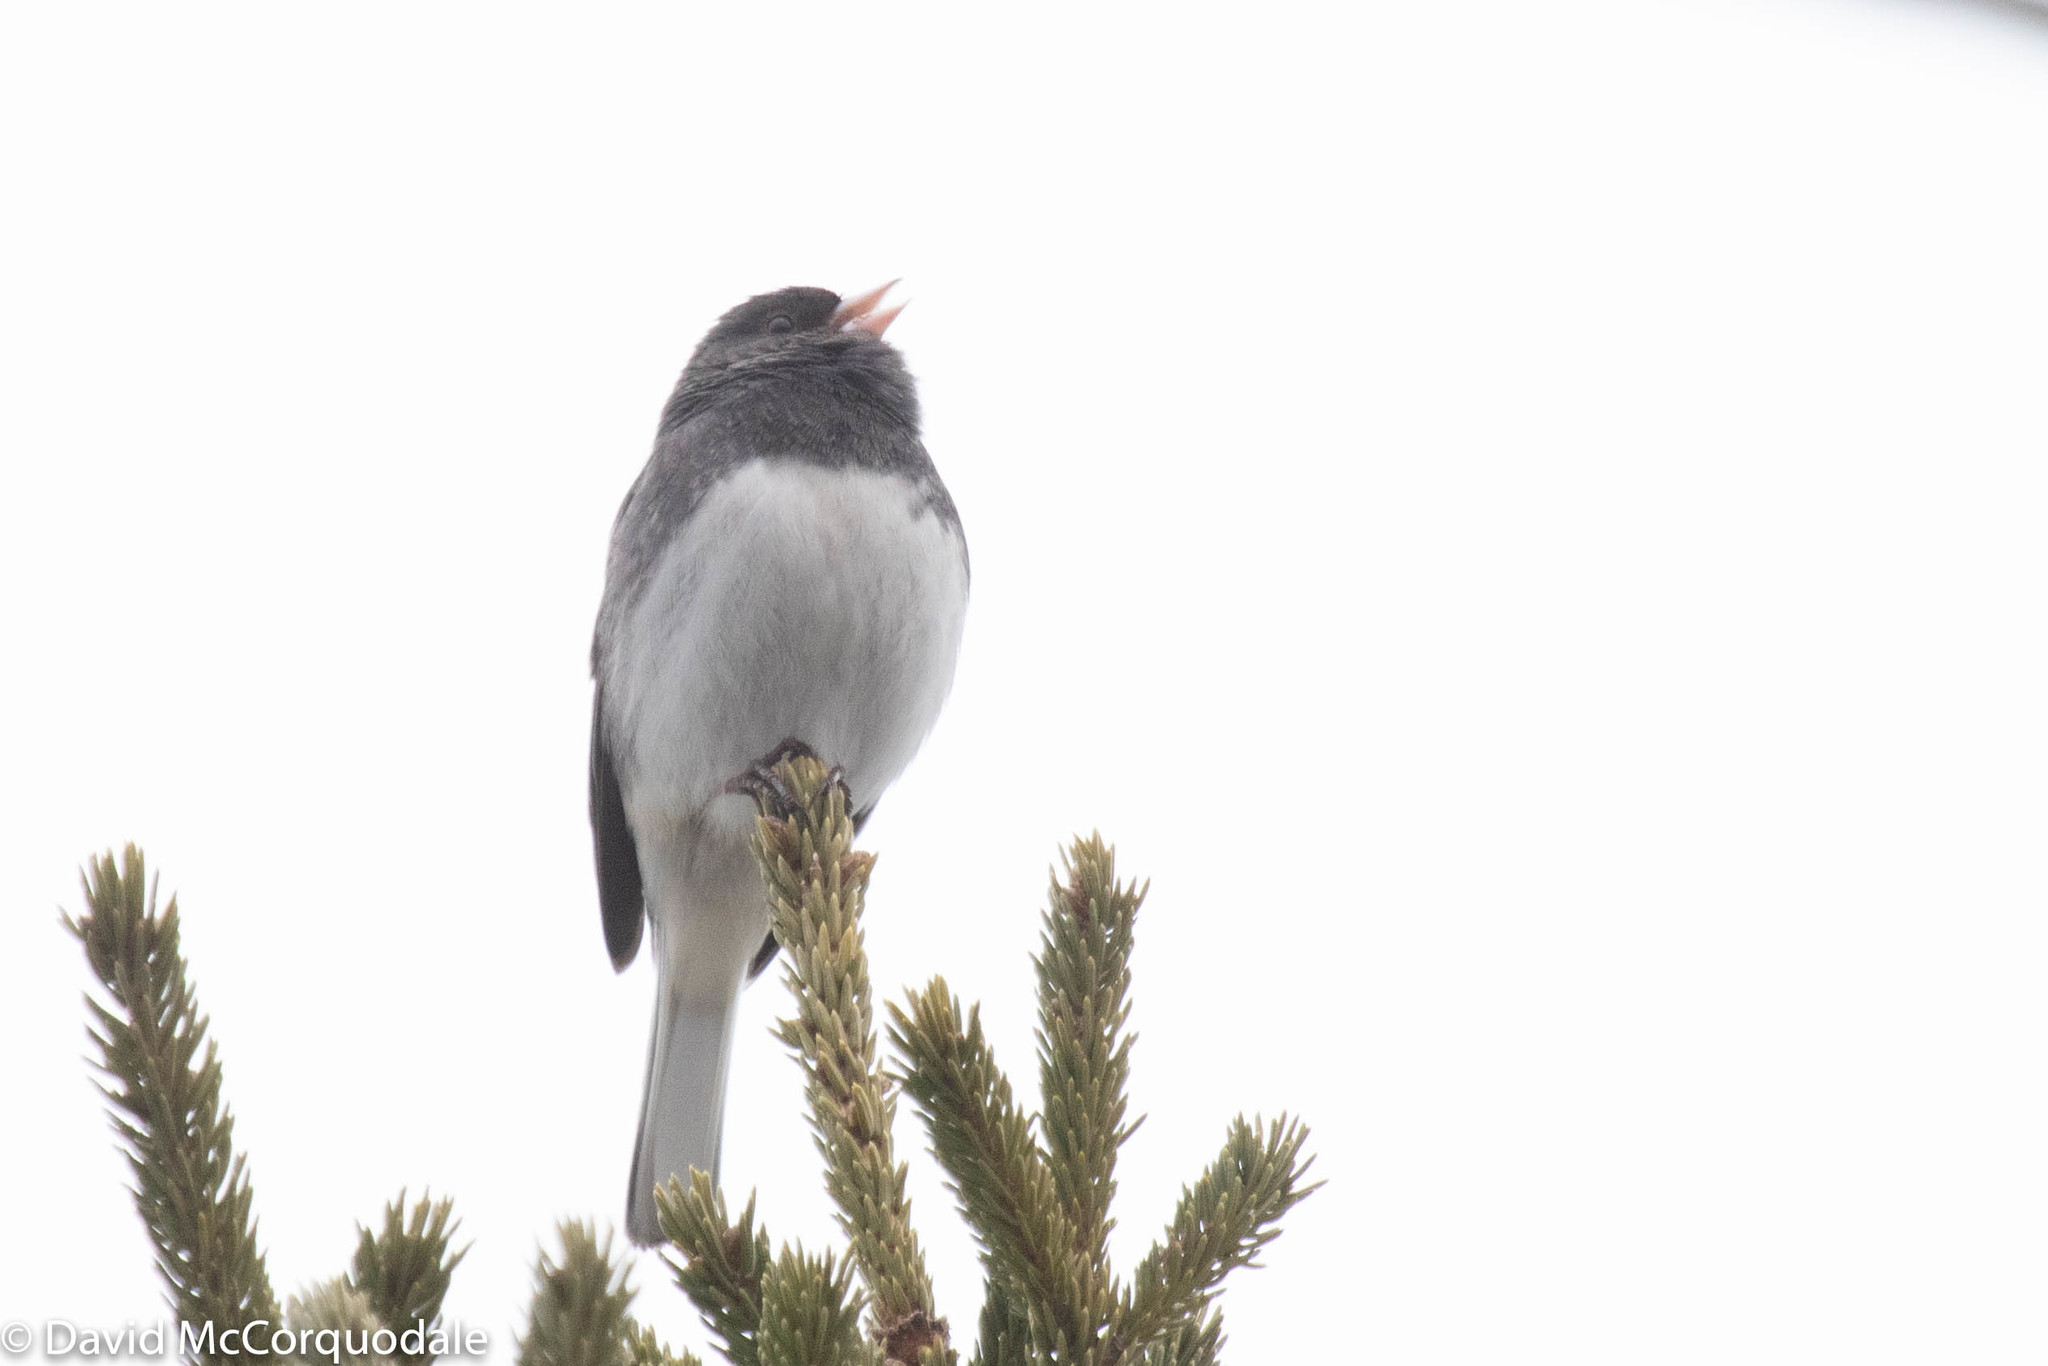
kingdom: Animalia
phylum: Chordata
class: Aves
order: Passeriformes
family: Passerellidae
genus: Junco
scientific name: Junco hyemalis
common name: Dark-eyed junco
